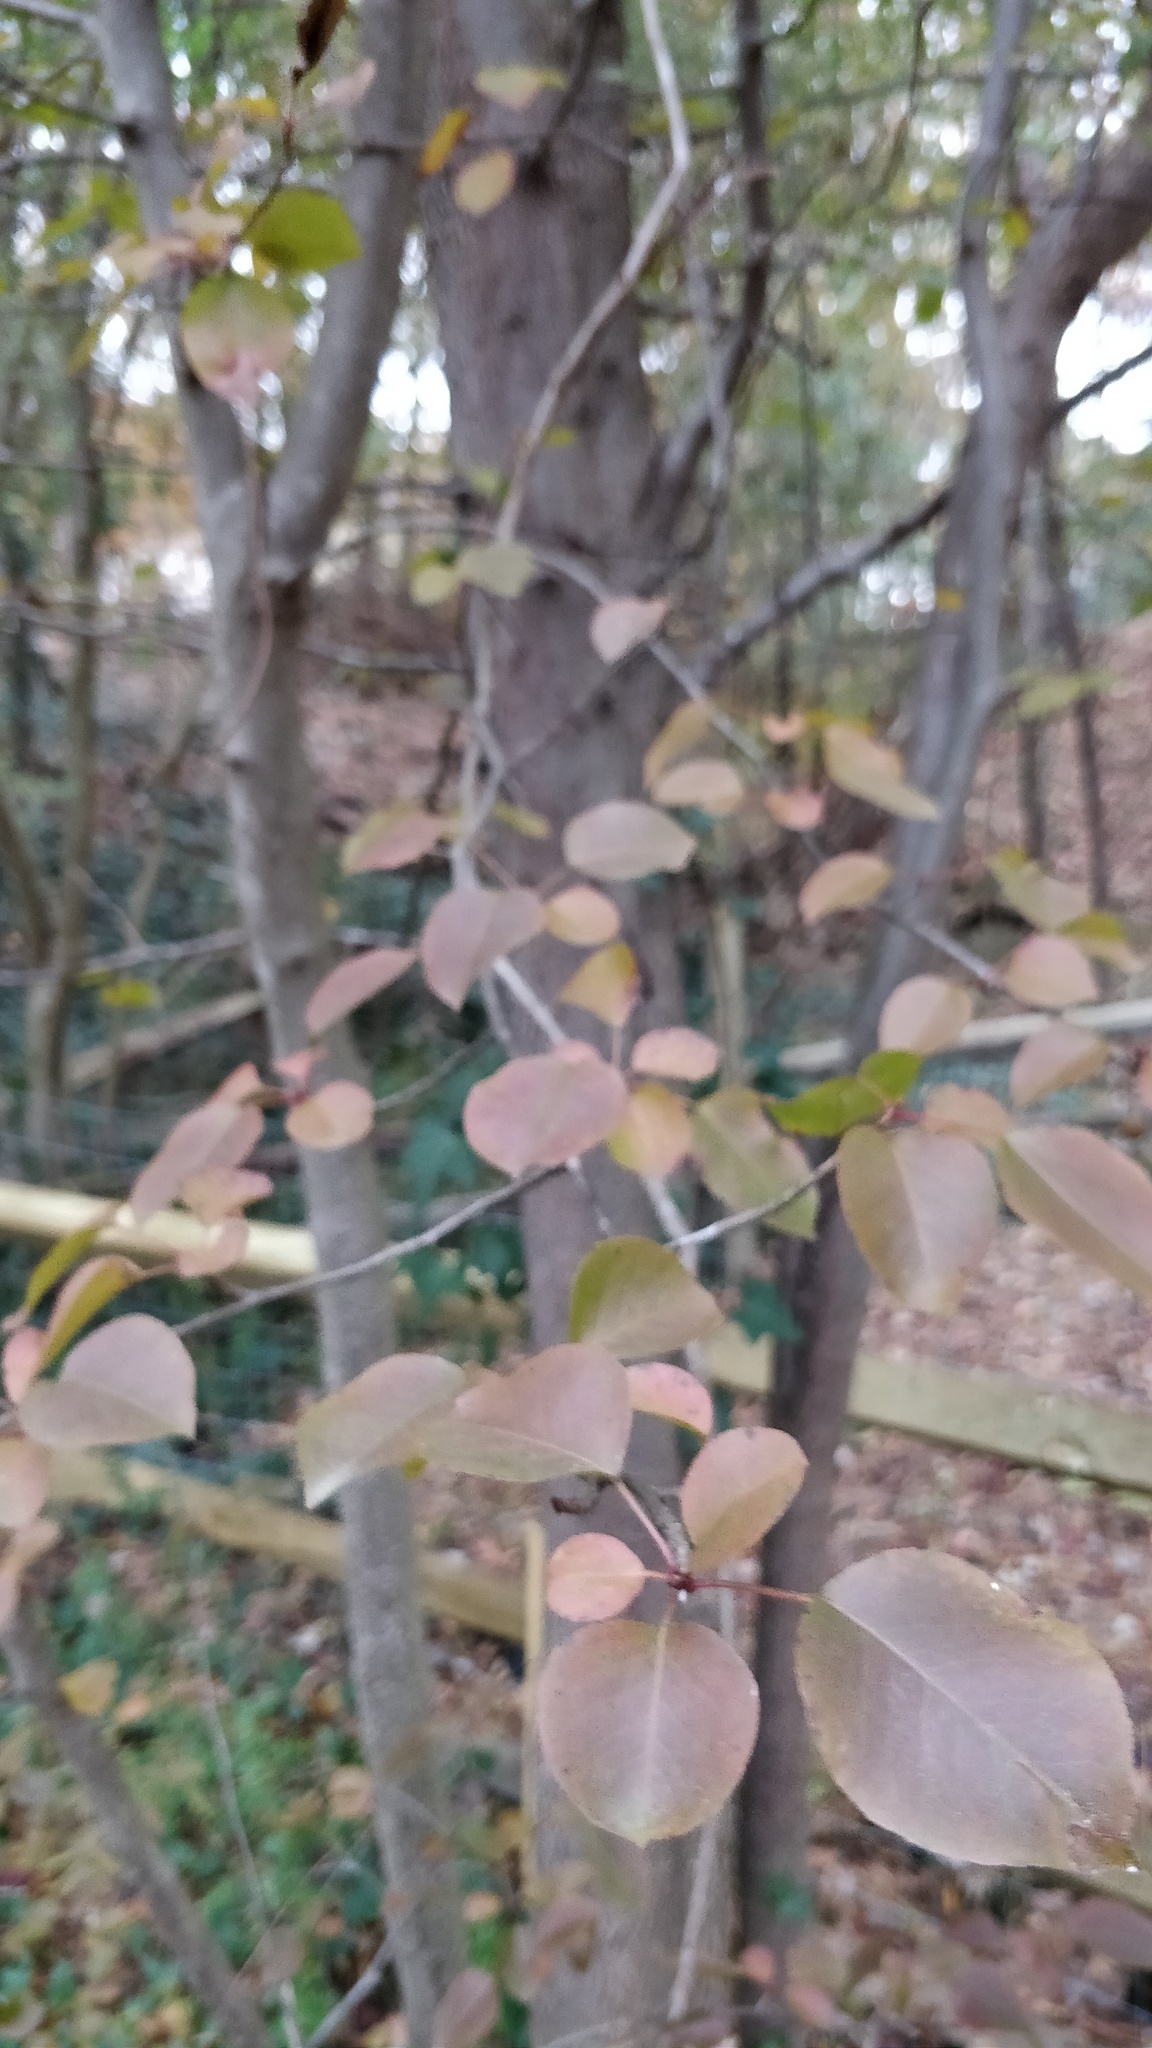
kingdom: Plantae
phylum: Tracheophyta
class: Magnoliopsida
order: Dipsacales
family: Viburnaceae
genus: Viburnum
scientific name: Viburnum prunifolium
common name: Black haw
